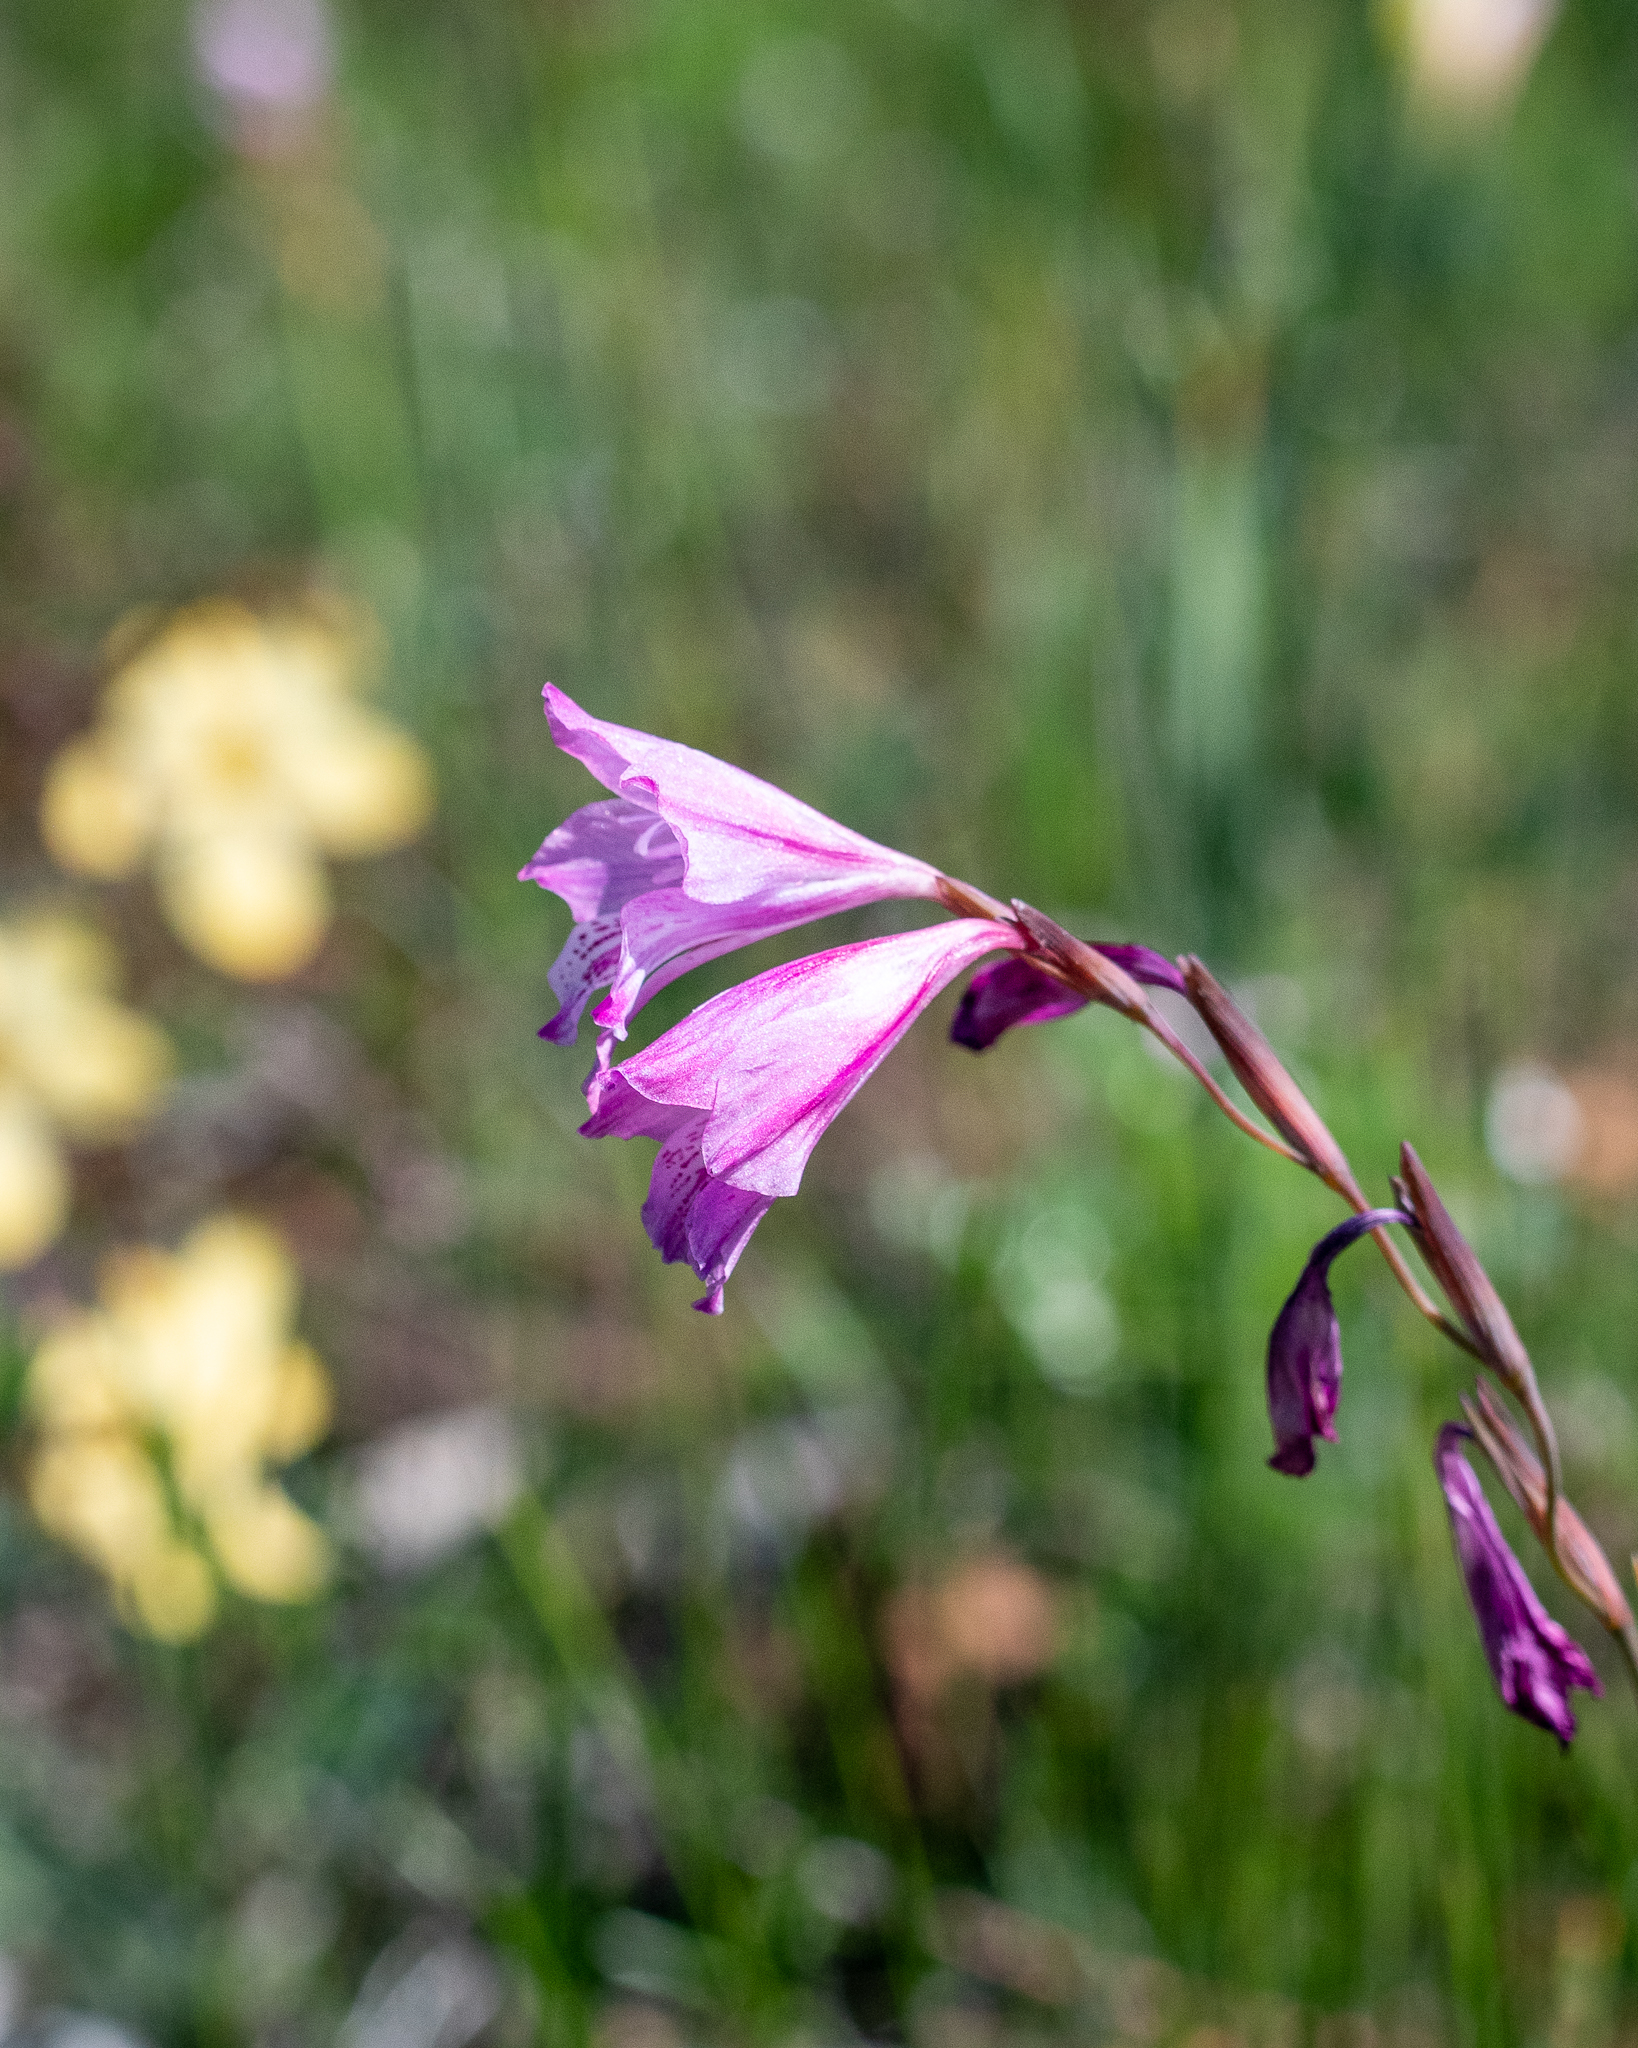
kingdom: Plantae
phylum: Tracheophyta
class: Liliopsida
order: Asparagales
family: Iridaceae
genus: Gladiolus
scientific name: Gladiolus hirsutus
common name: Small pink afrikaner
